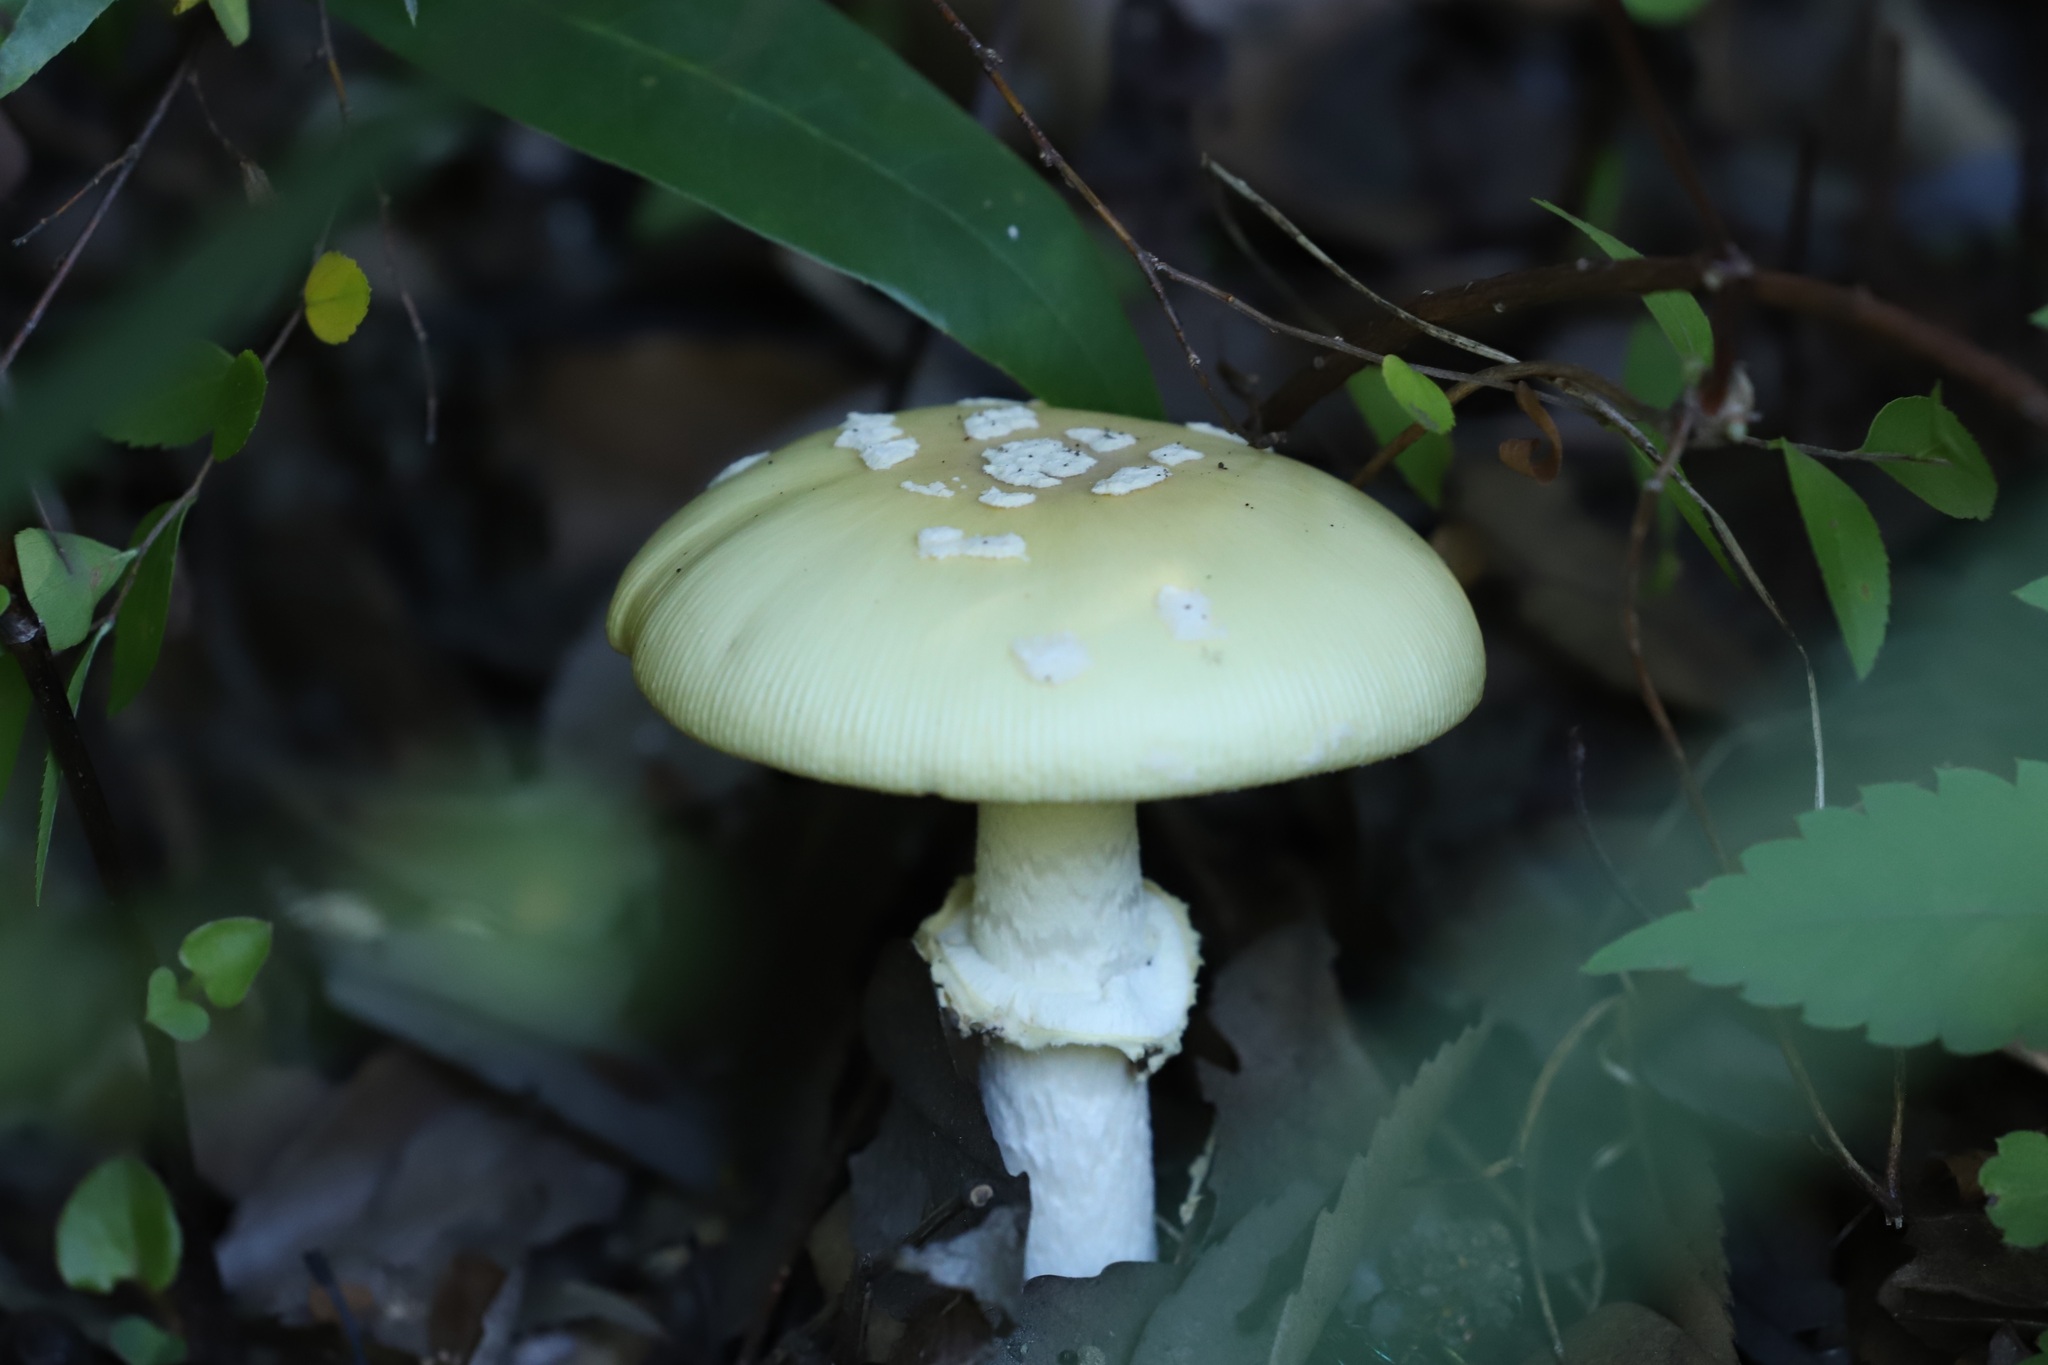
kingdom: Fungi
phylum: Basidiomycota
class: Agaricomycetes
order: Agaricales
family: Amanitaceae
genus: Amanita
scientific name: Amanita orientigemmata
